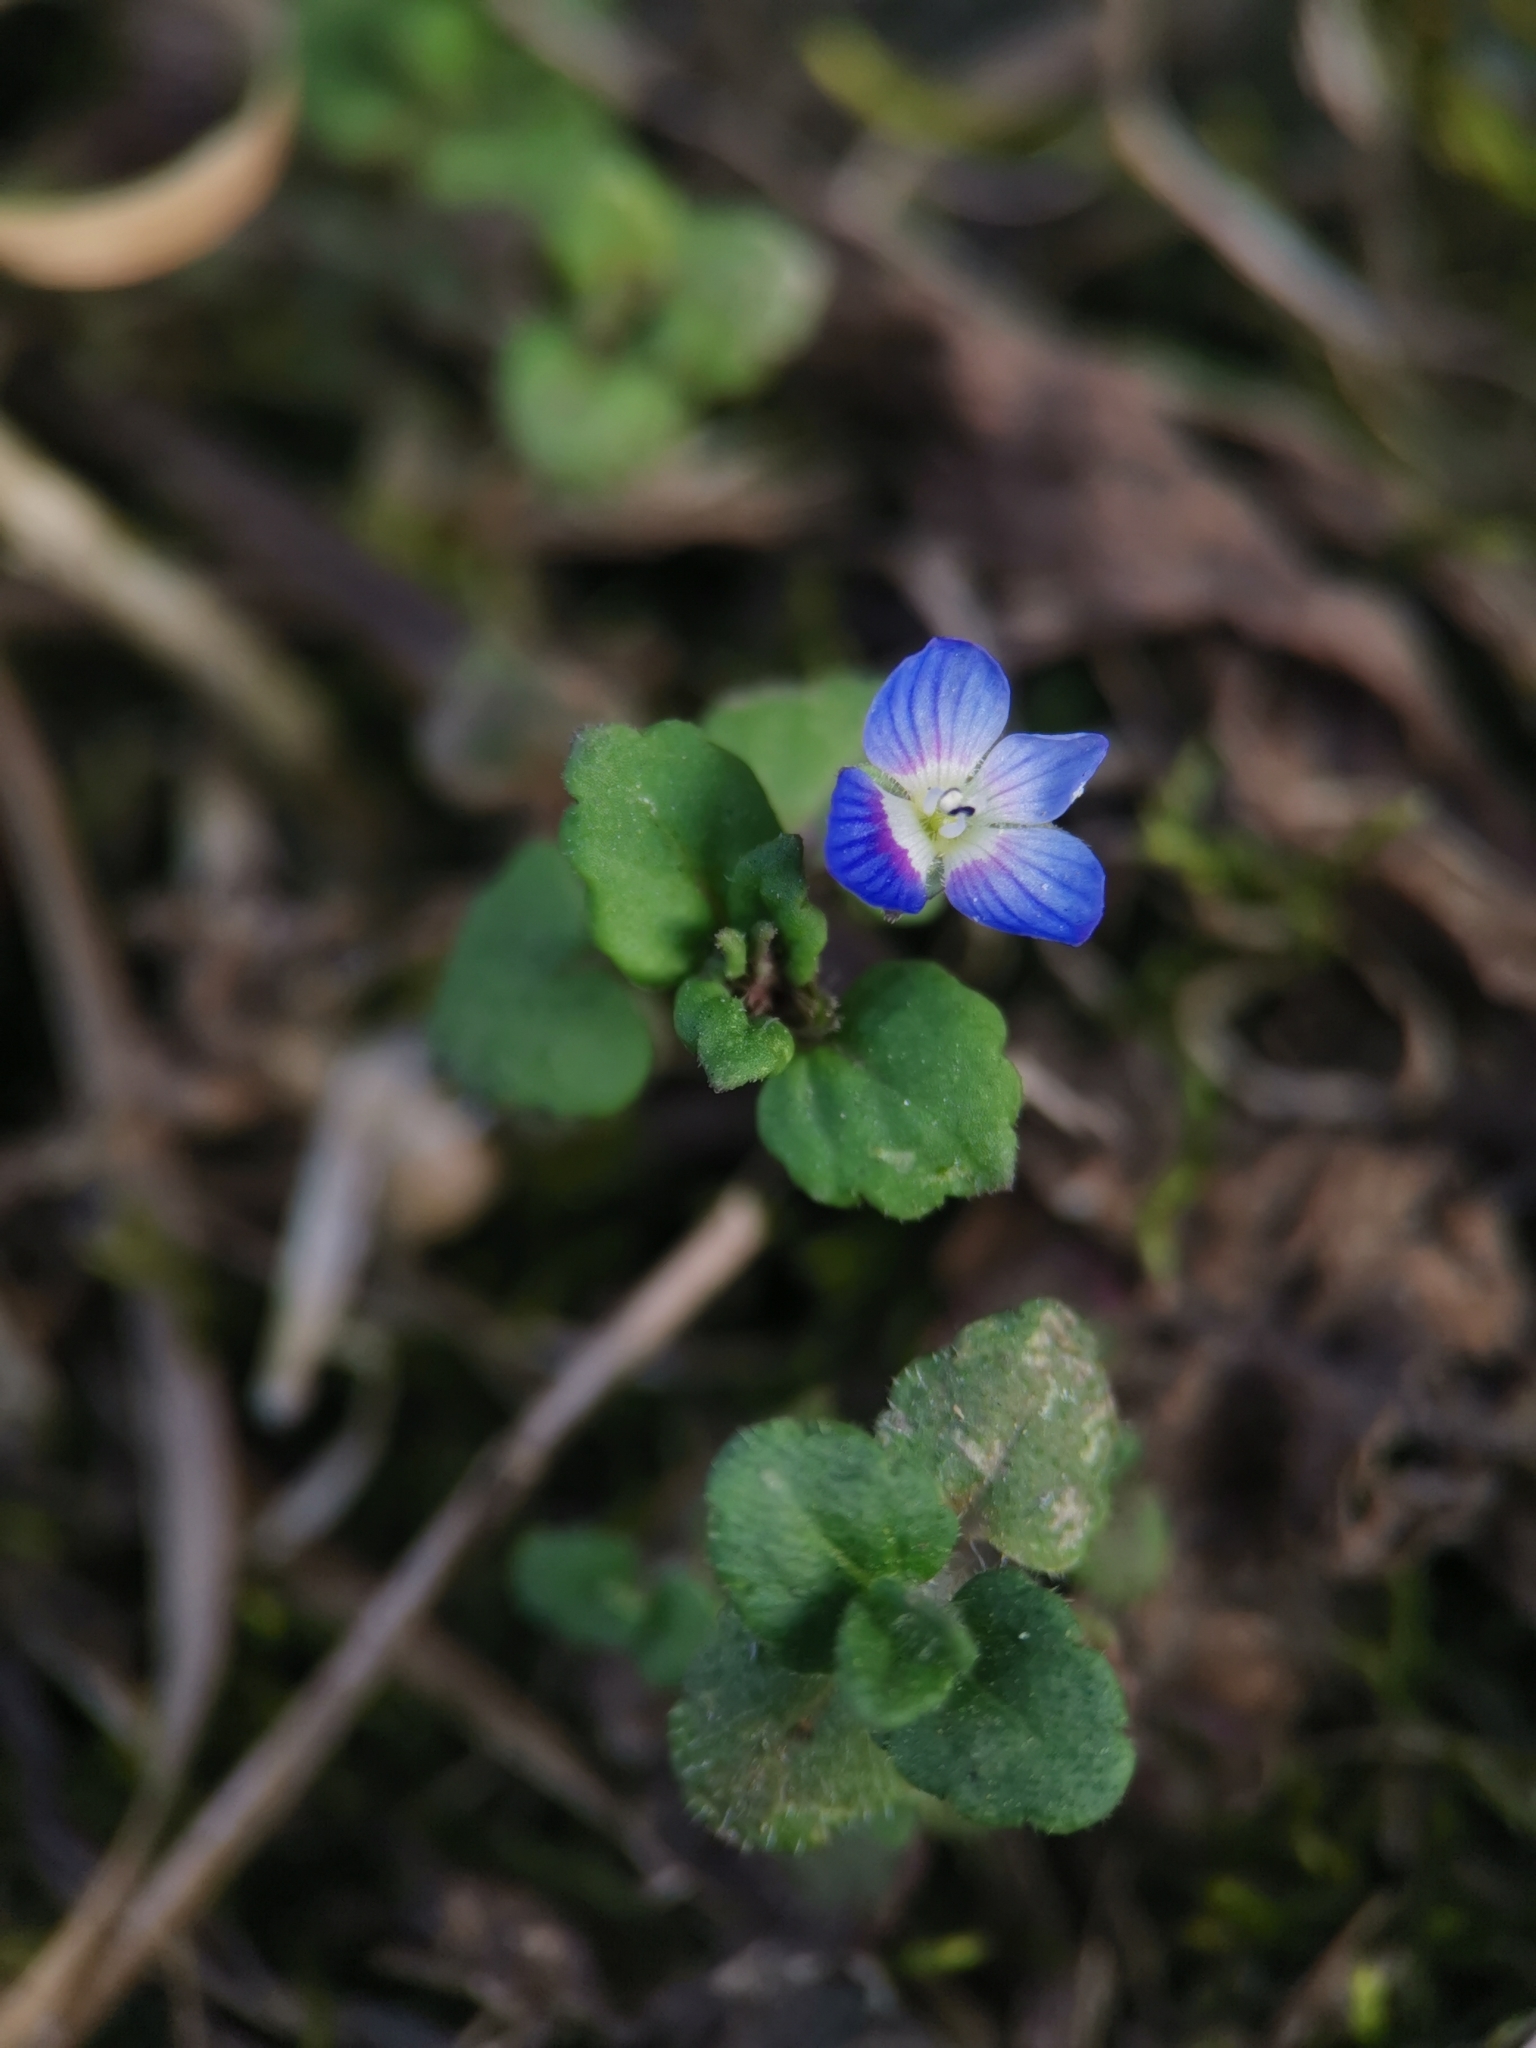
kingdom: Plantae
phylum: Tracheophyta
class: Magnoliopsida
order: Lamiales
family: Plantaginaceae
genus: Veronica
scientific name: Veronica persica
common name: Common field-speedwell
